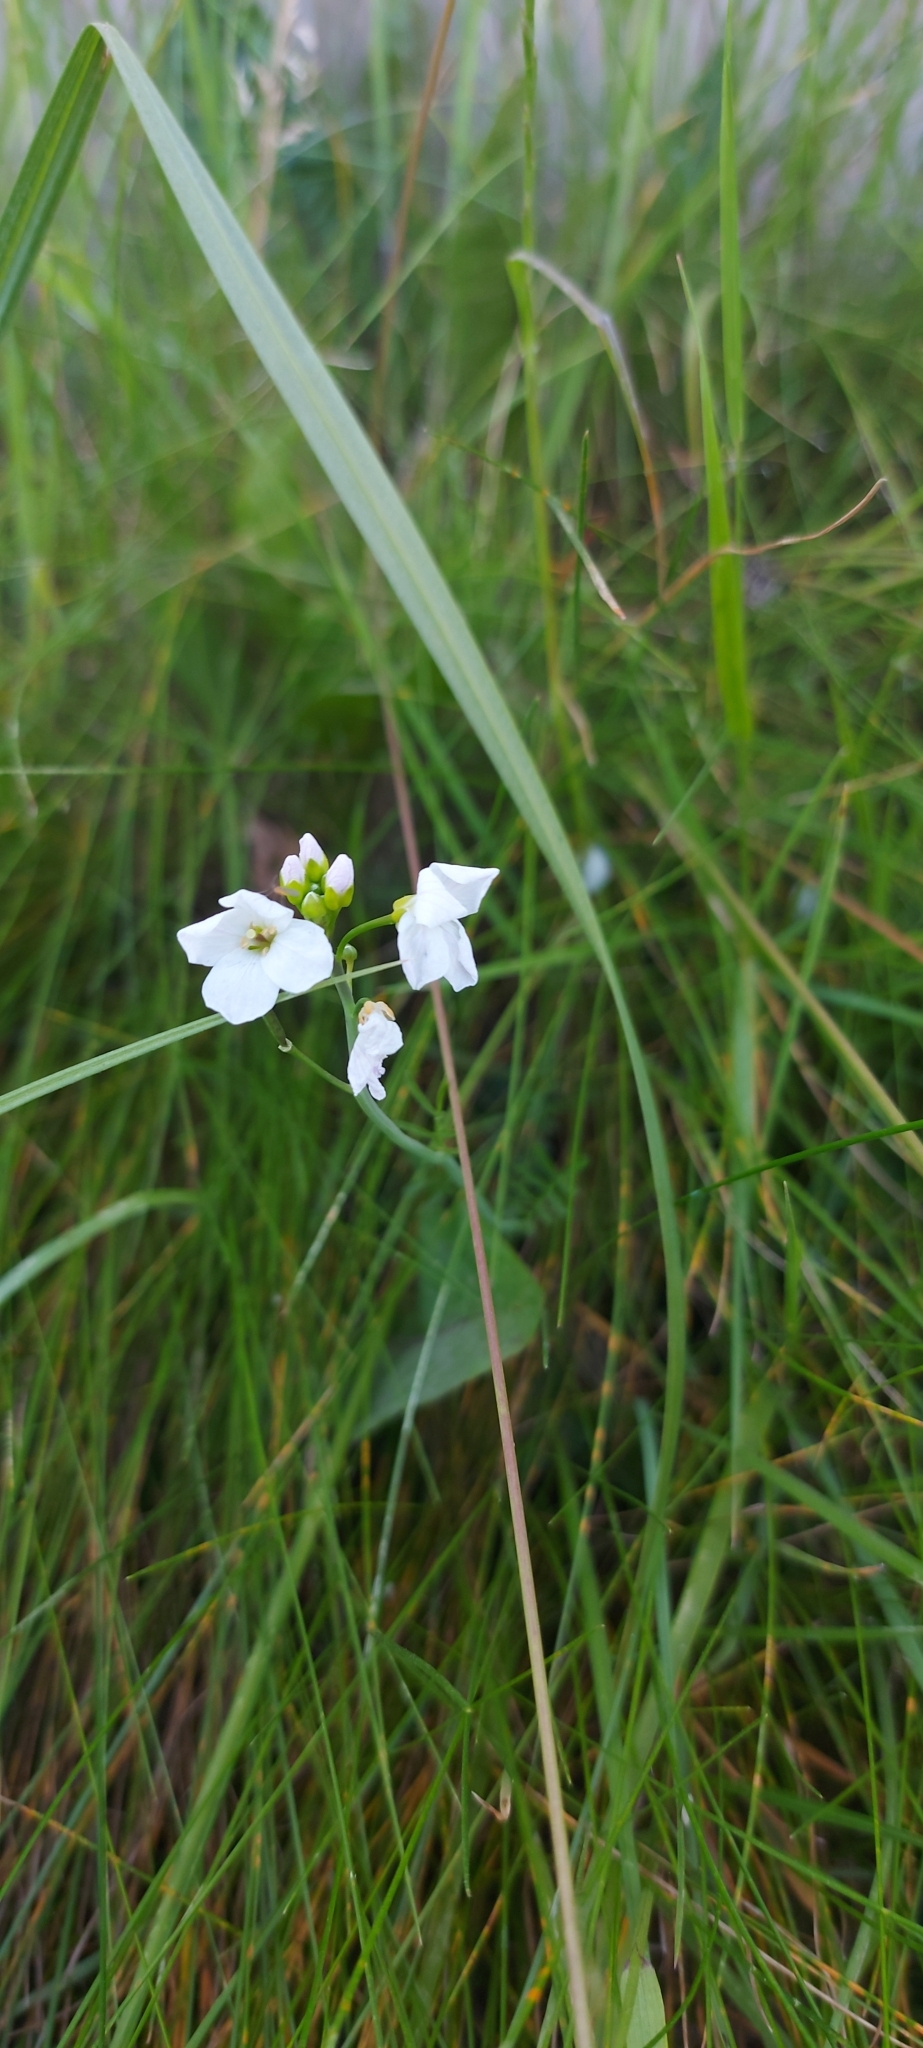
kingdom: Plantae
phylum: Tracheophyta
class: Magnoliopsida
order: Brassicales
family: Brassicaceae
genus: Cardamine
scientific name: Cardamine pratensis
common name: Cuckoo flower
